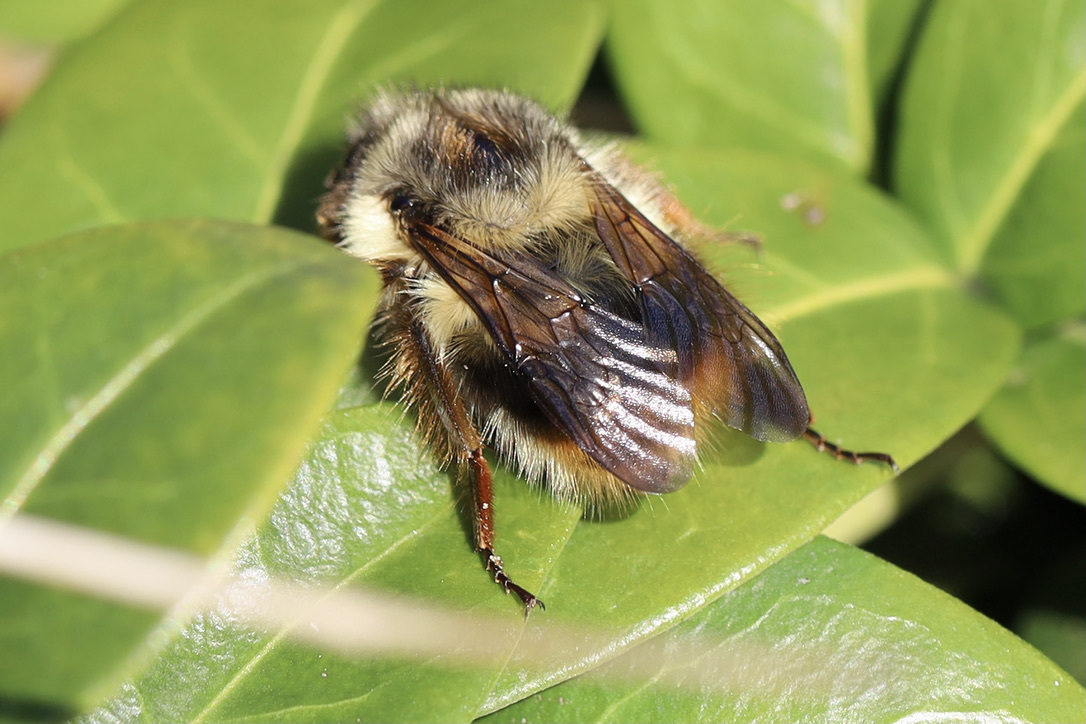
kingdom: Animalia
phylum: Arthropoda
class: Insecta
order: Hymenoptera
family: Apidae
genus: Bombus
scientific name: Bombus mixtus
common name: Fuzzy-horned bumble bee
